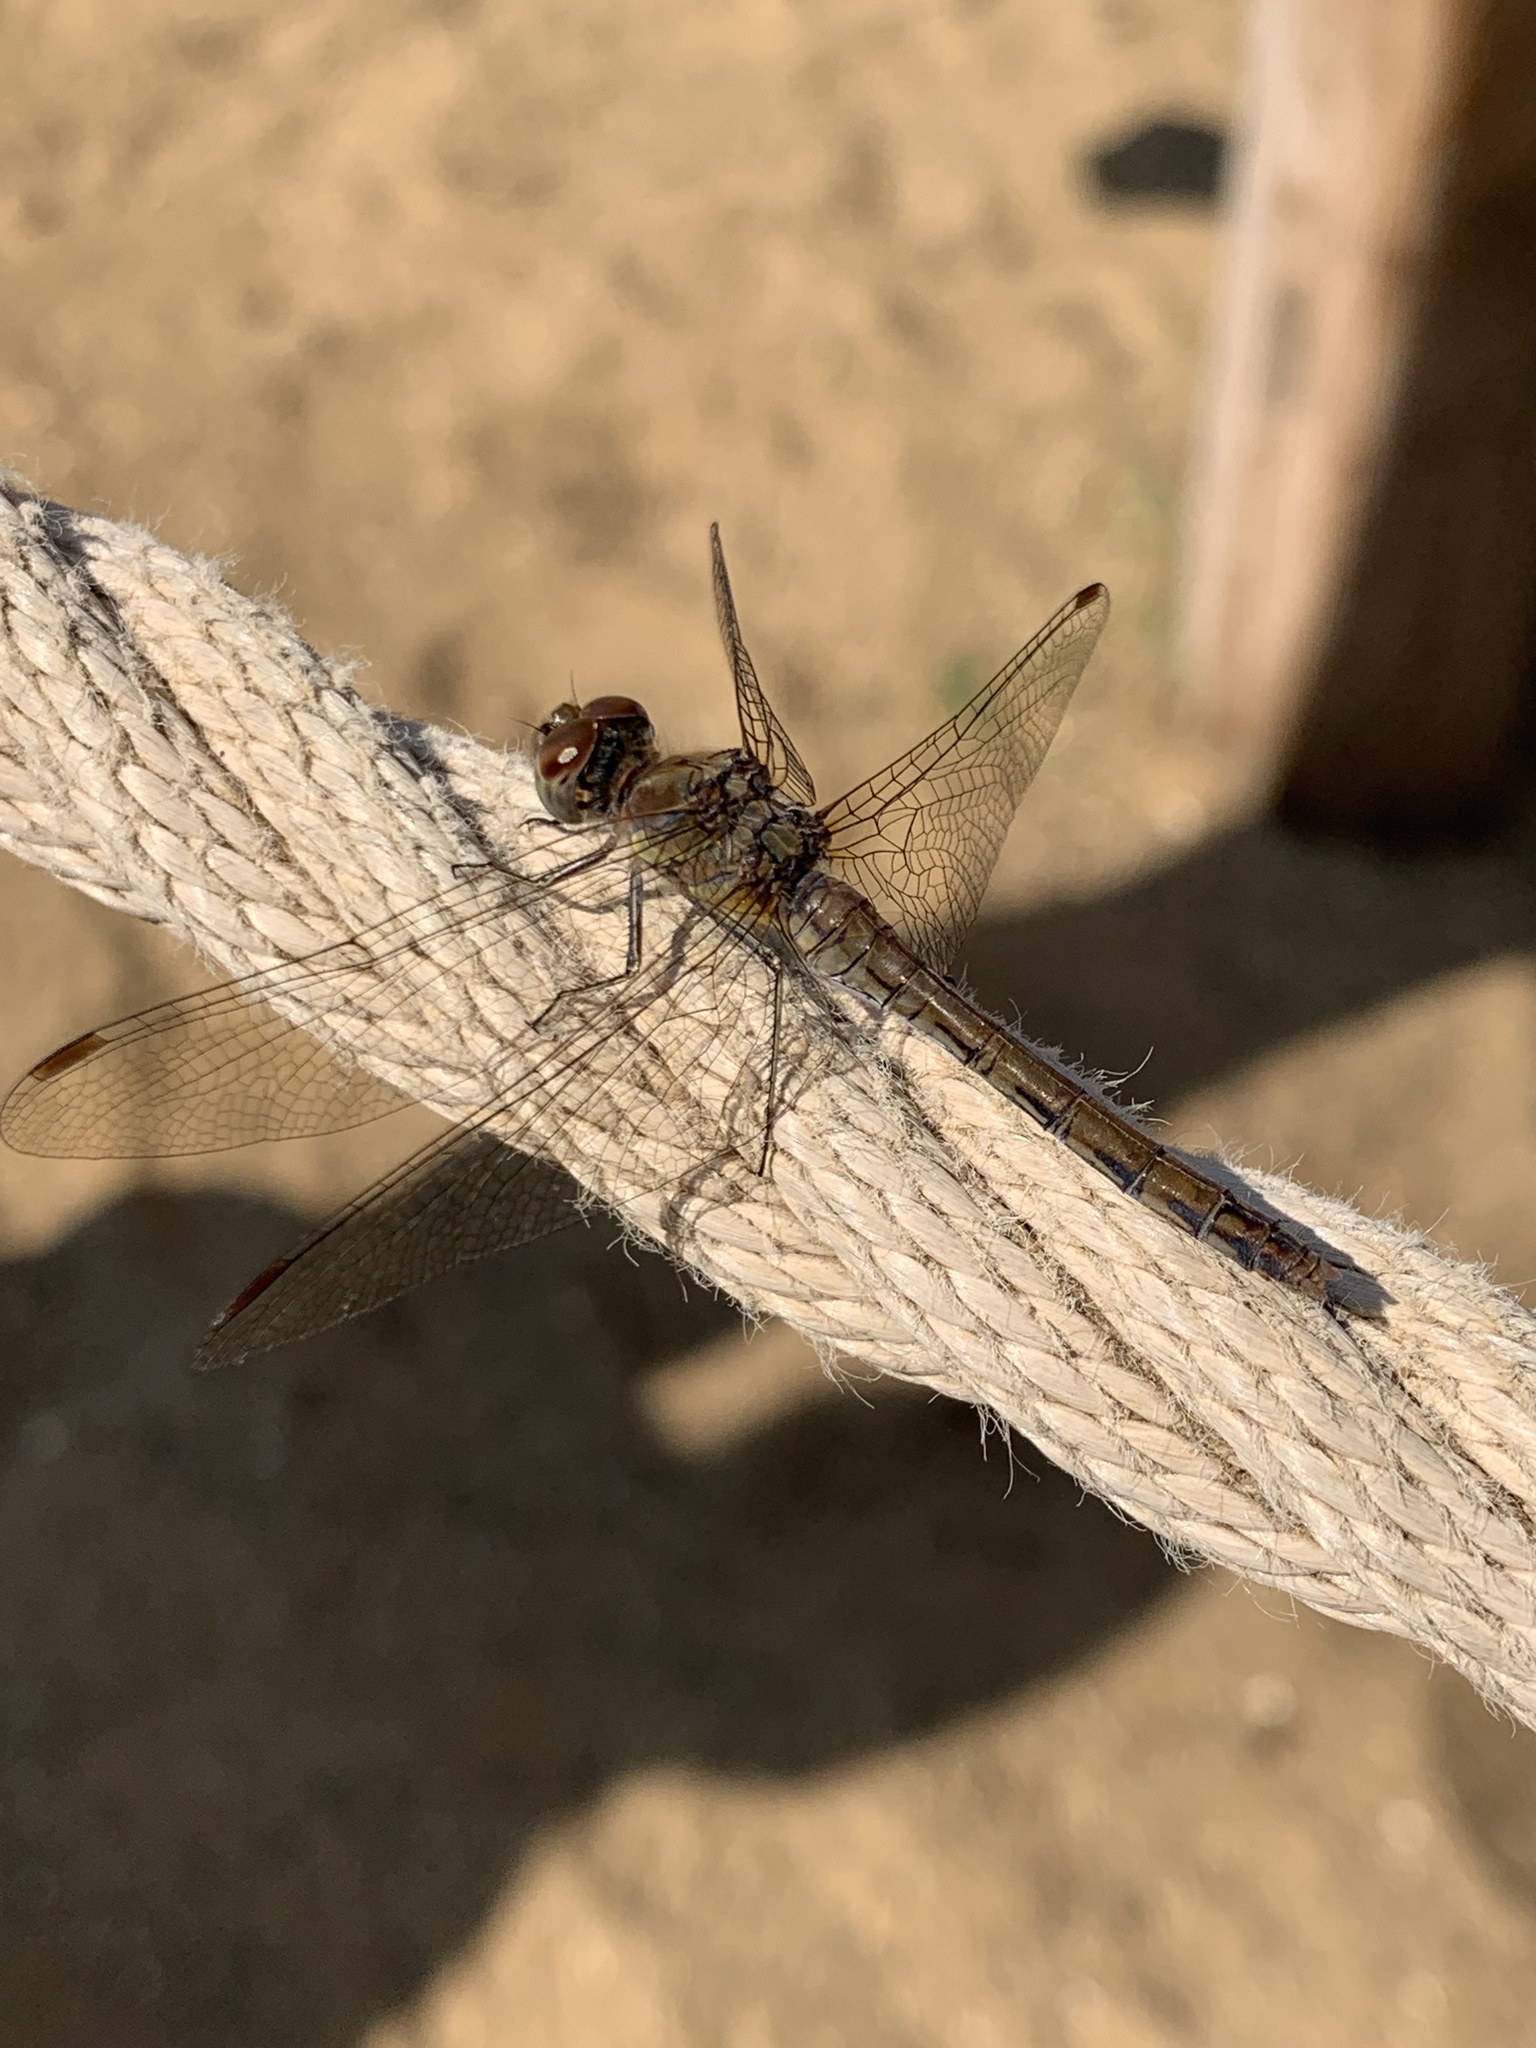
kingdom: Animalia
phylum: Arthropoda
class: Insecta
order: Odonata
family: Libellulidae
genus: Sympetrum
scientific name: Sympetrum striolatum
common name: Common darter
